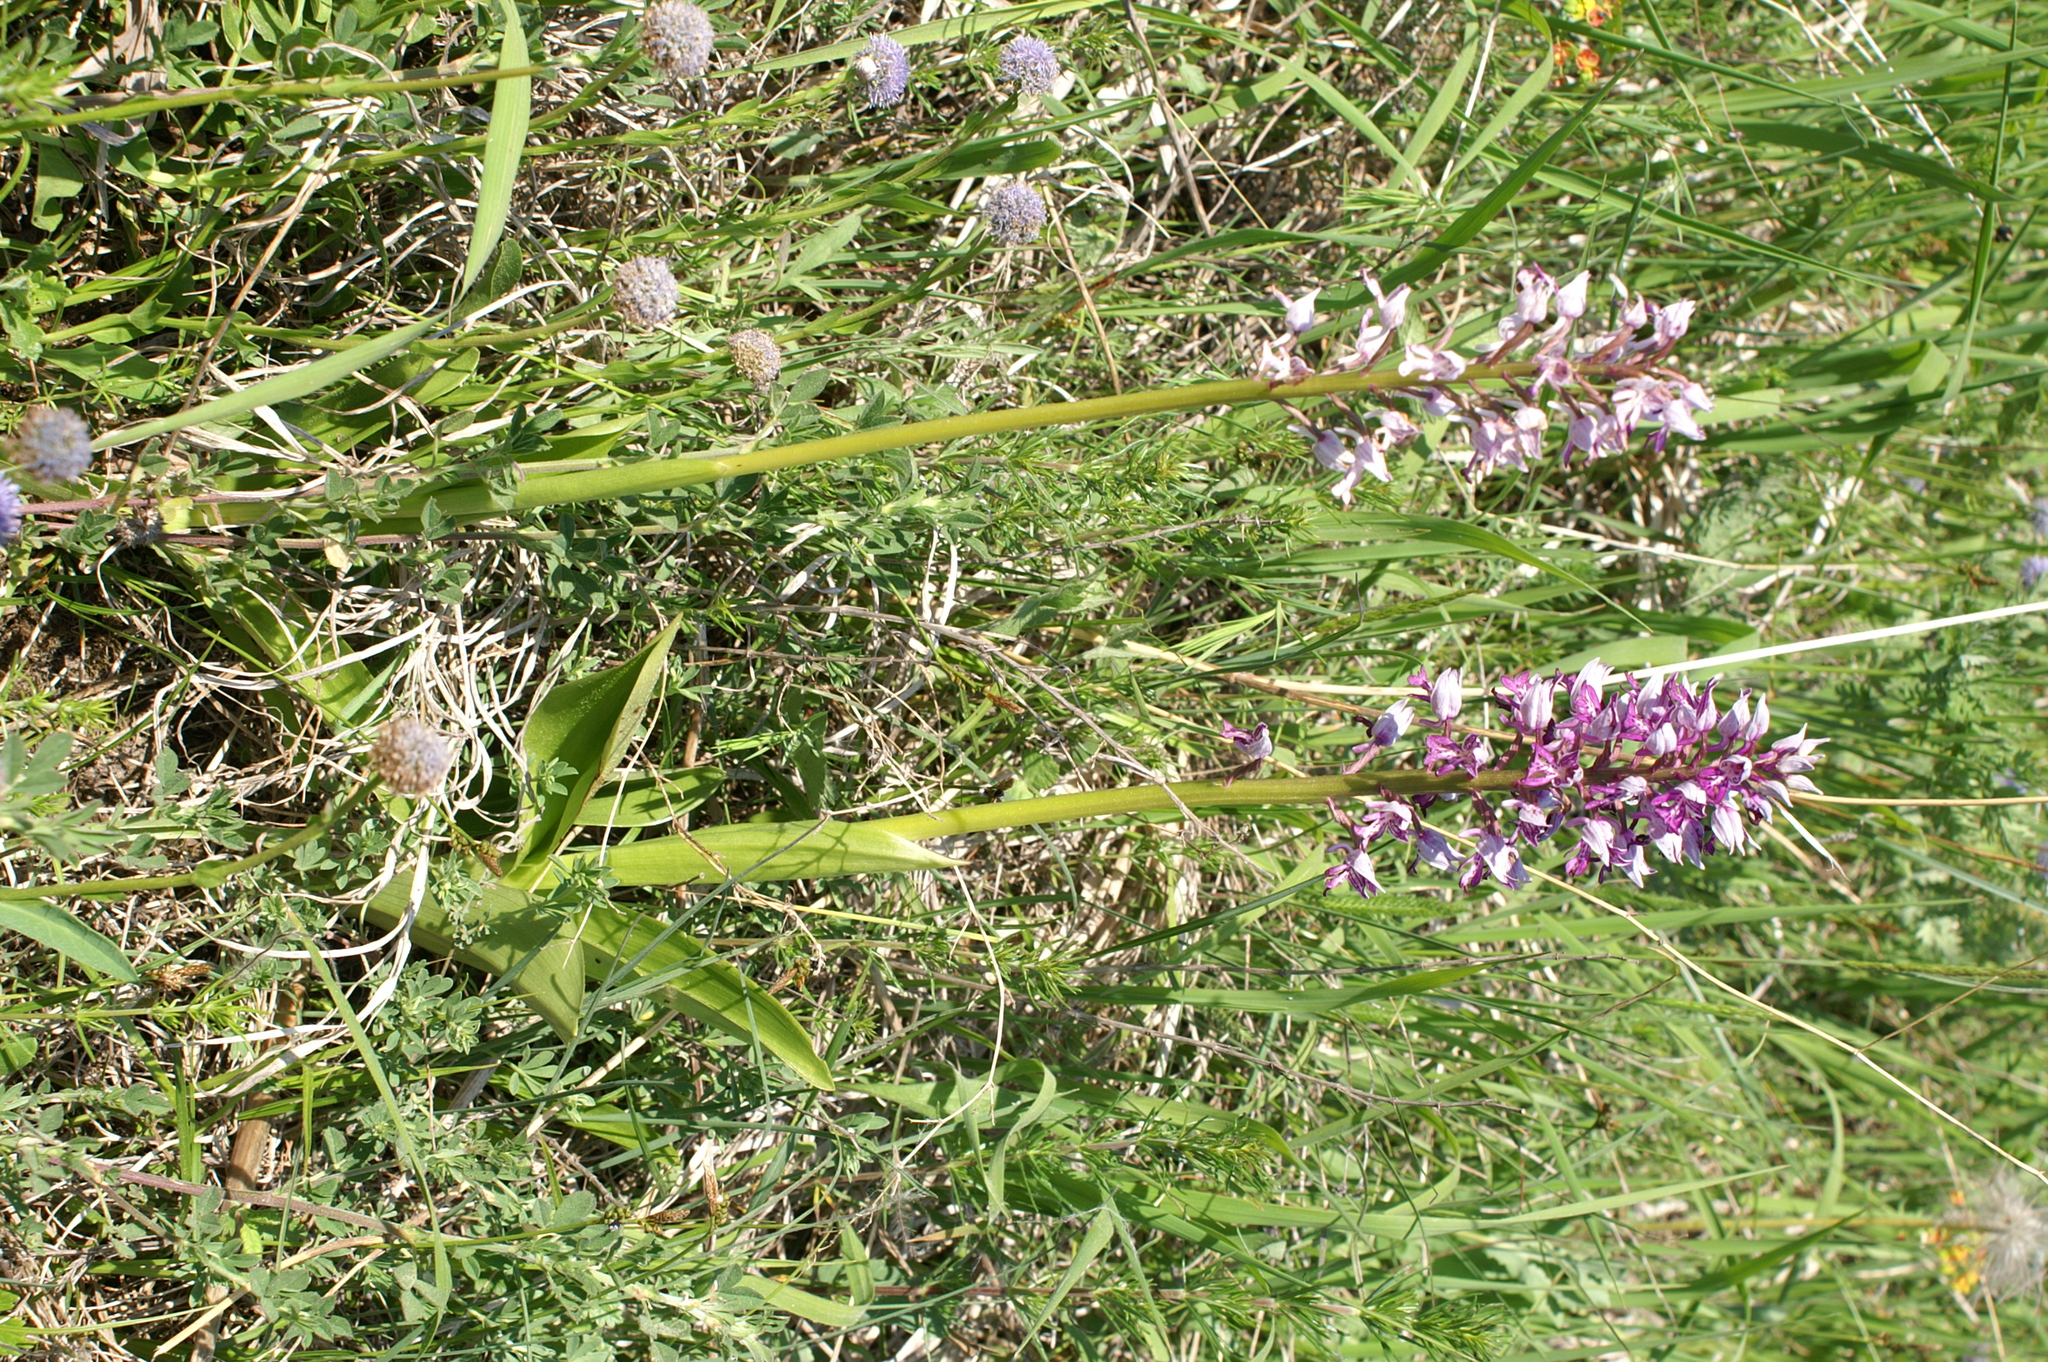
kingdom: Plantae
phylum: Tracheophyta
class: Liliopsida
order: Asparagales
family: Orchidaceae
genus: Orchis
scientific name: Orchis militaris
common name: Military orchid
